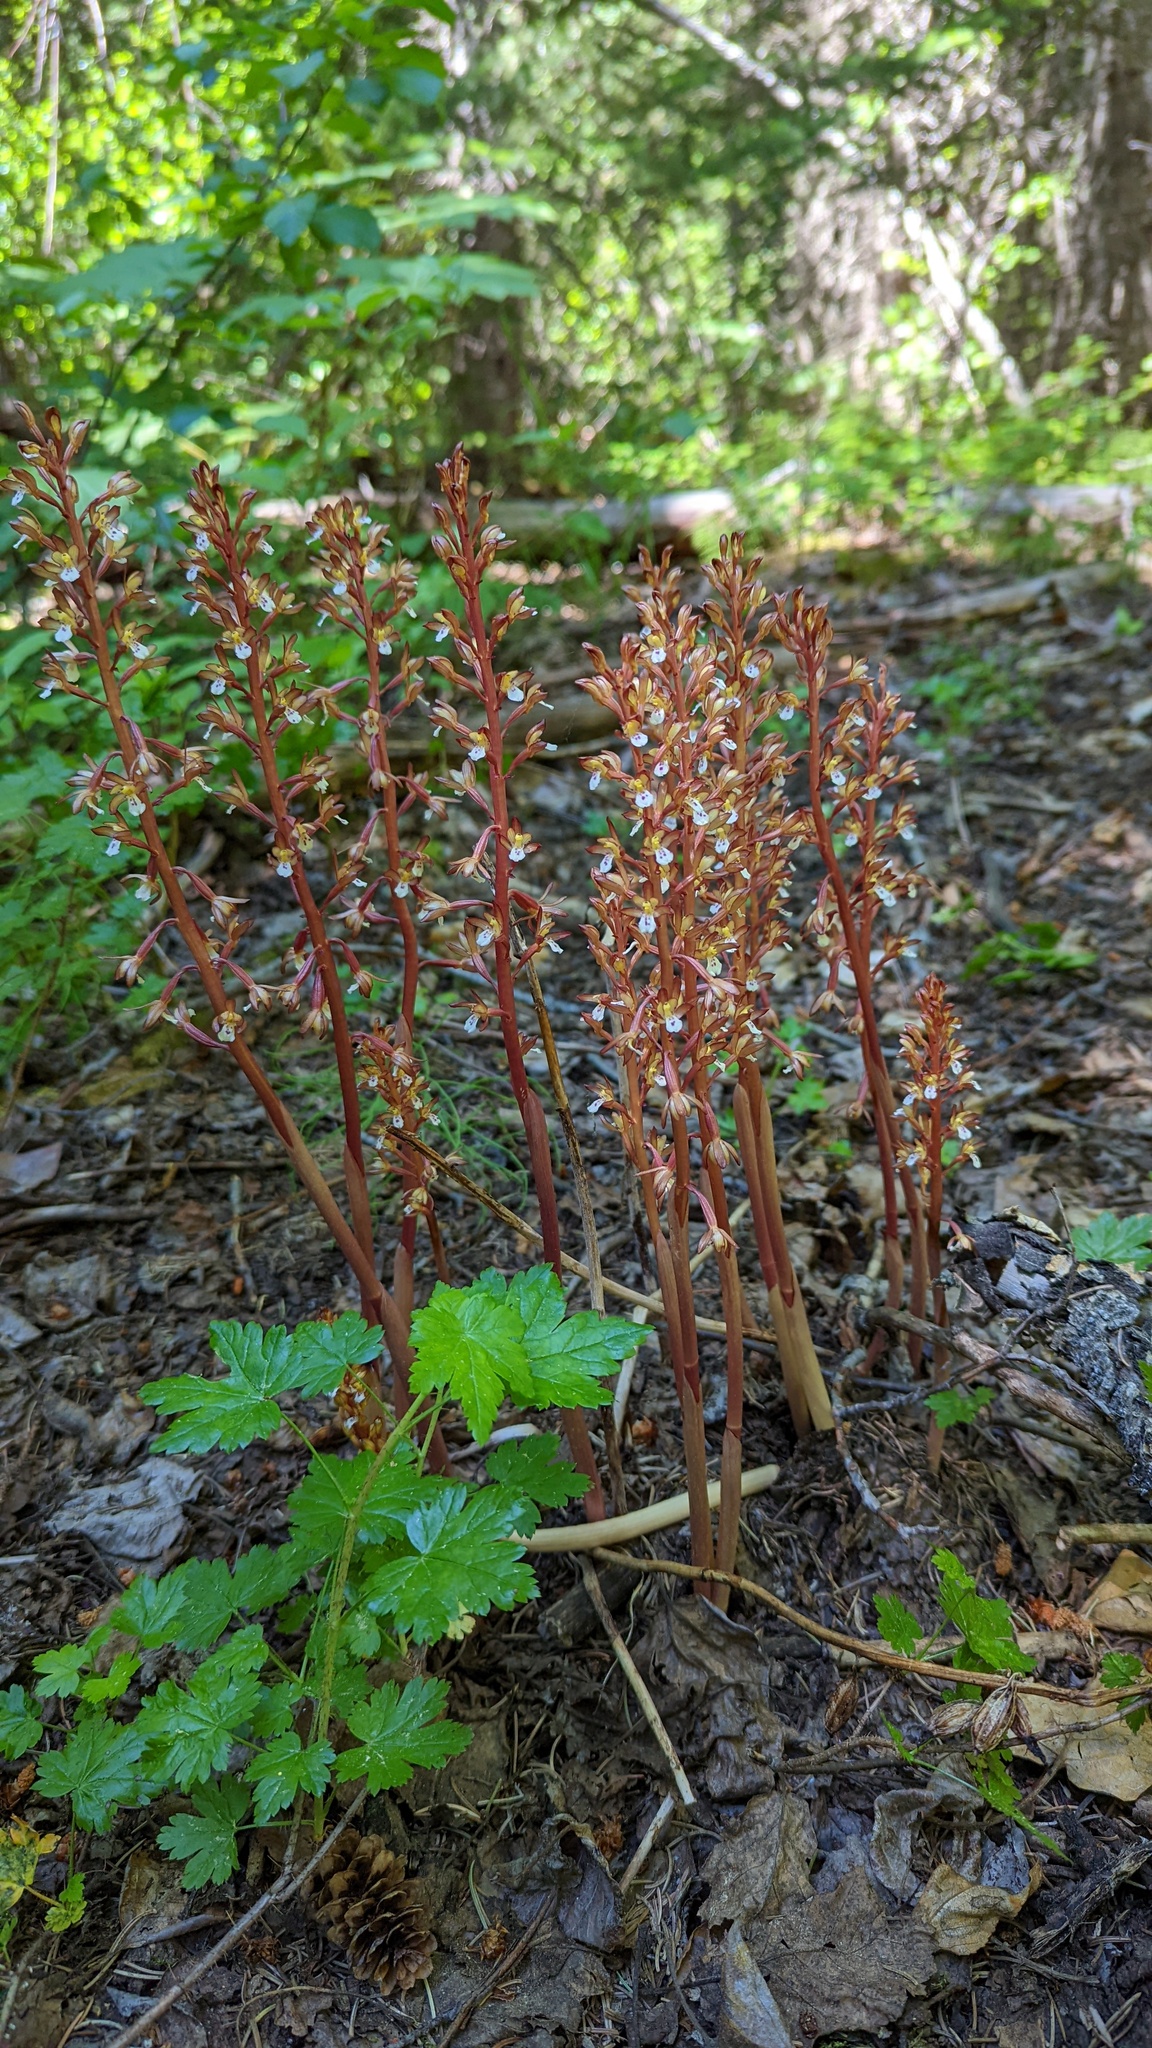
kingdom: Plantae
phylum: Tracheophyta
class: Liliopsida
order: Asparagales
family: Orchidaceae
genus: Corallorhiza
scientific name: Corallorhiza maculata
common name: Spotted coralroot
